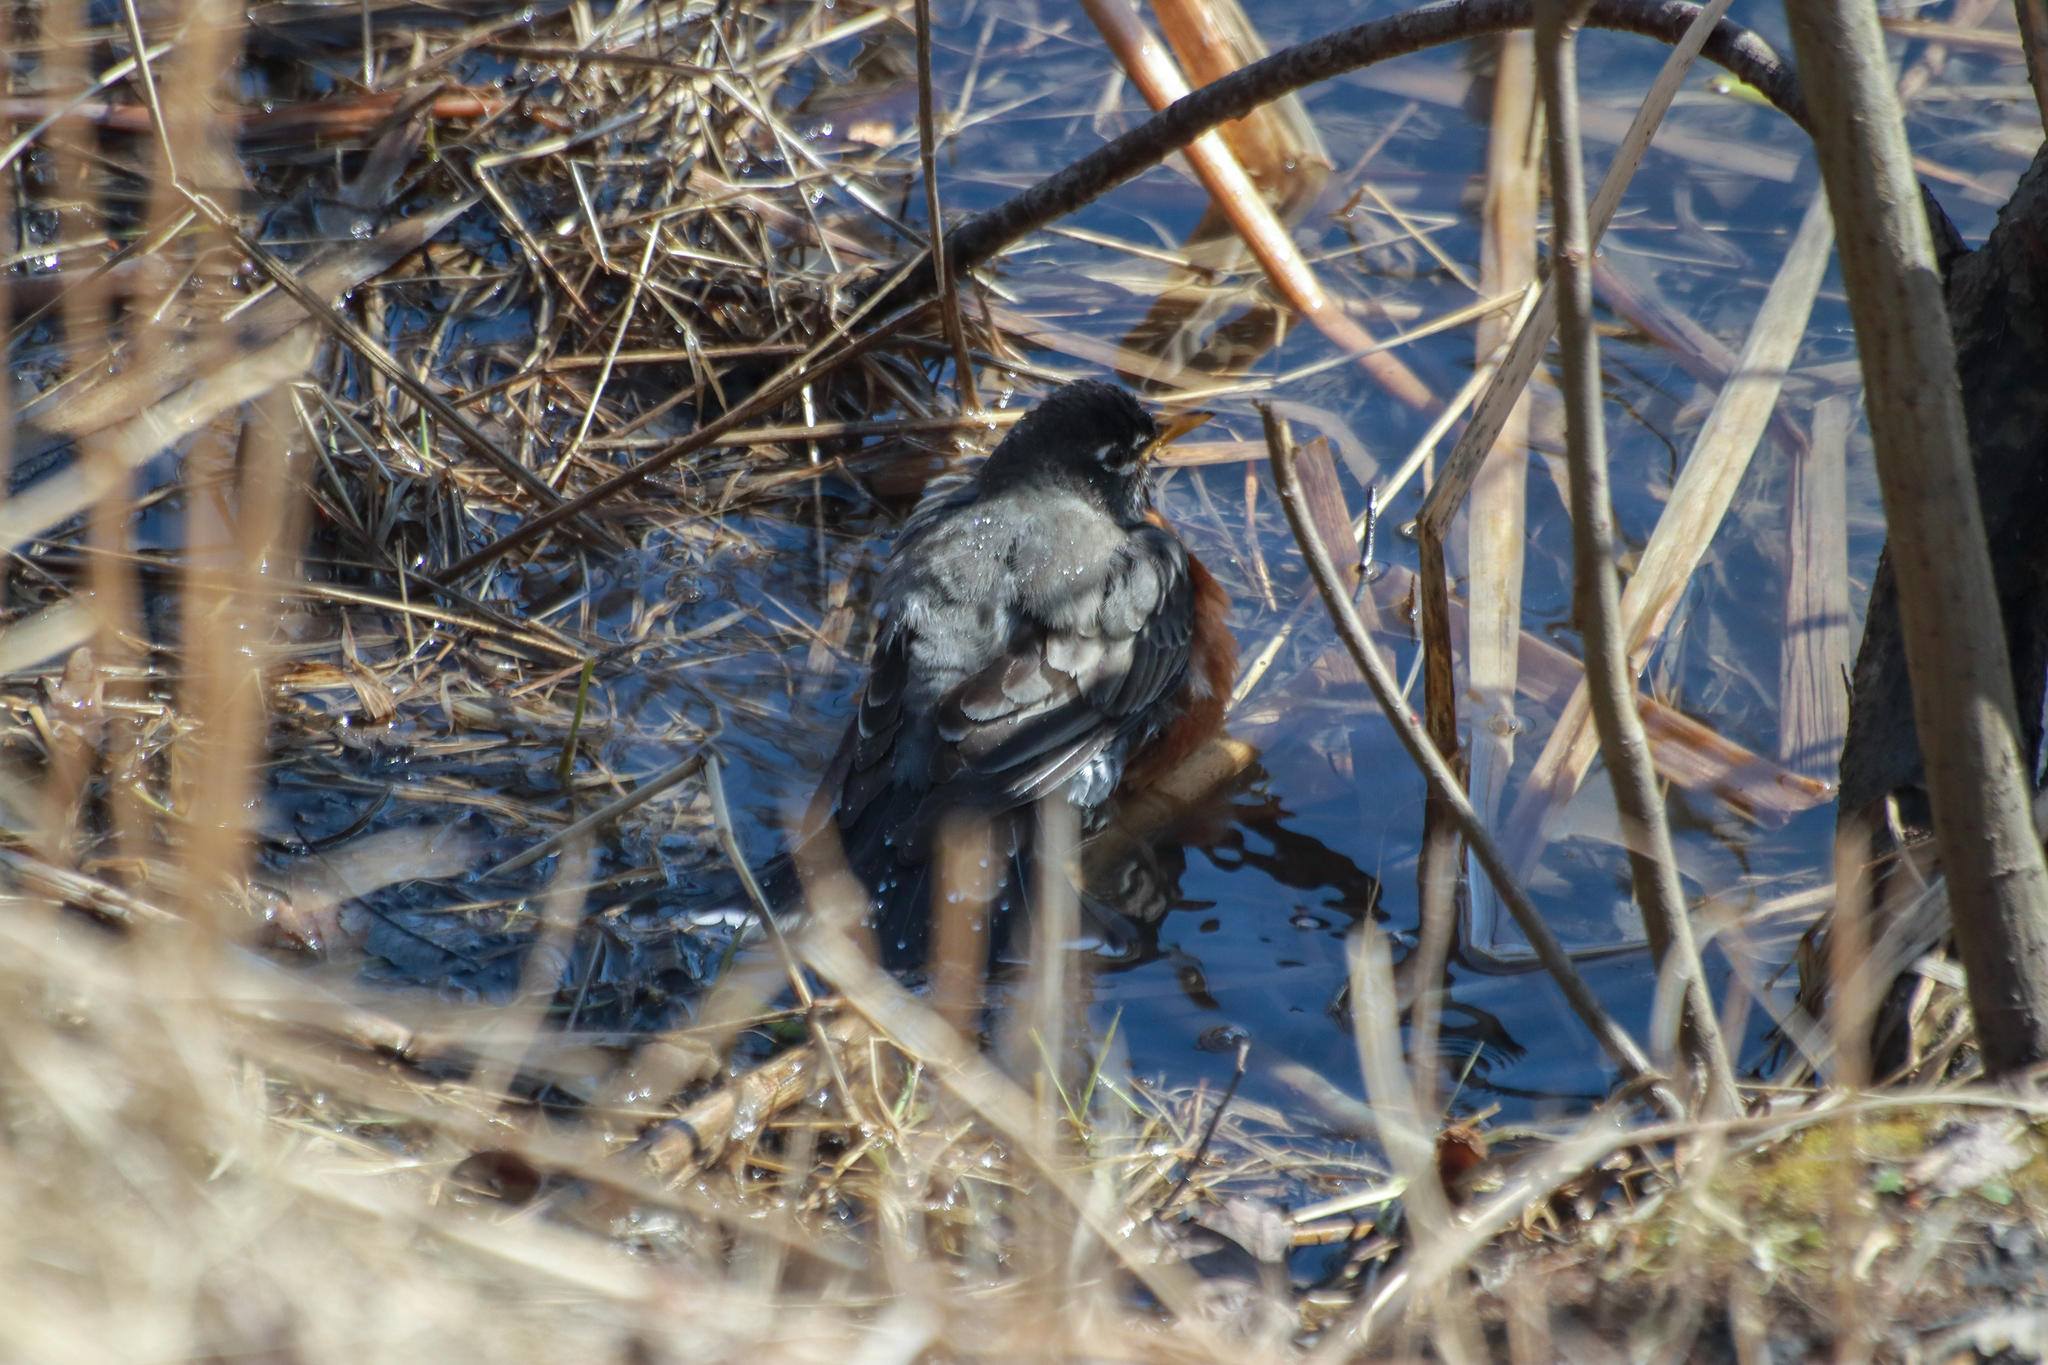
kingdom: Animalia
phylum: Chordata
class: Aves
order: Passeriformes
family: Turdidae
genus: Turdus
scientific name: Turdus migratorius
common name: American robin
